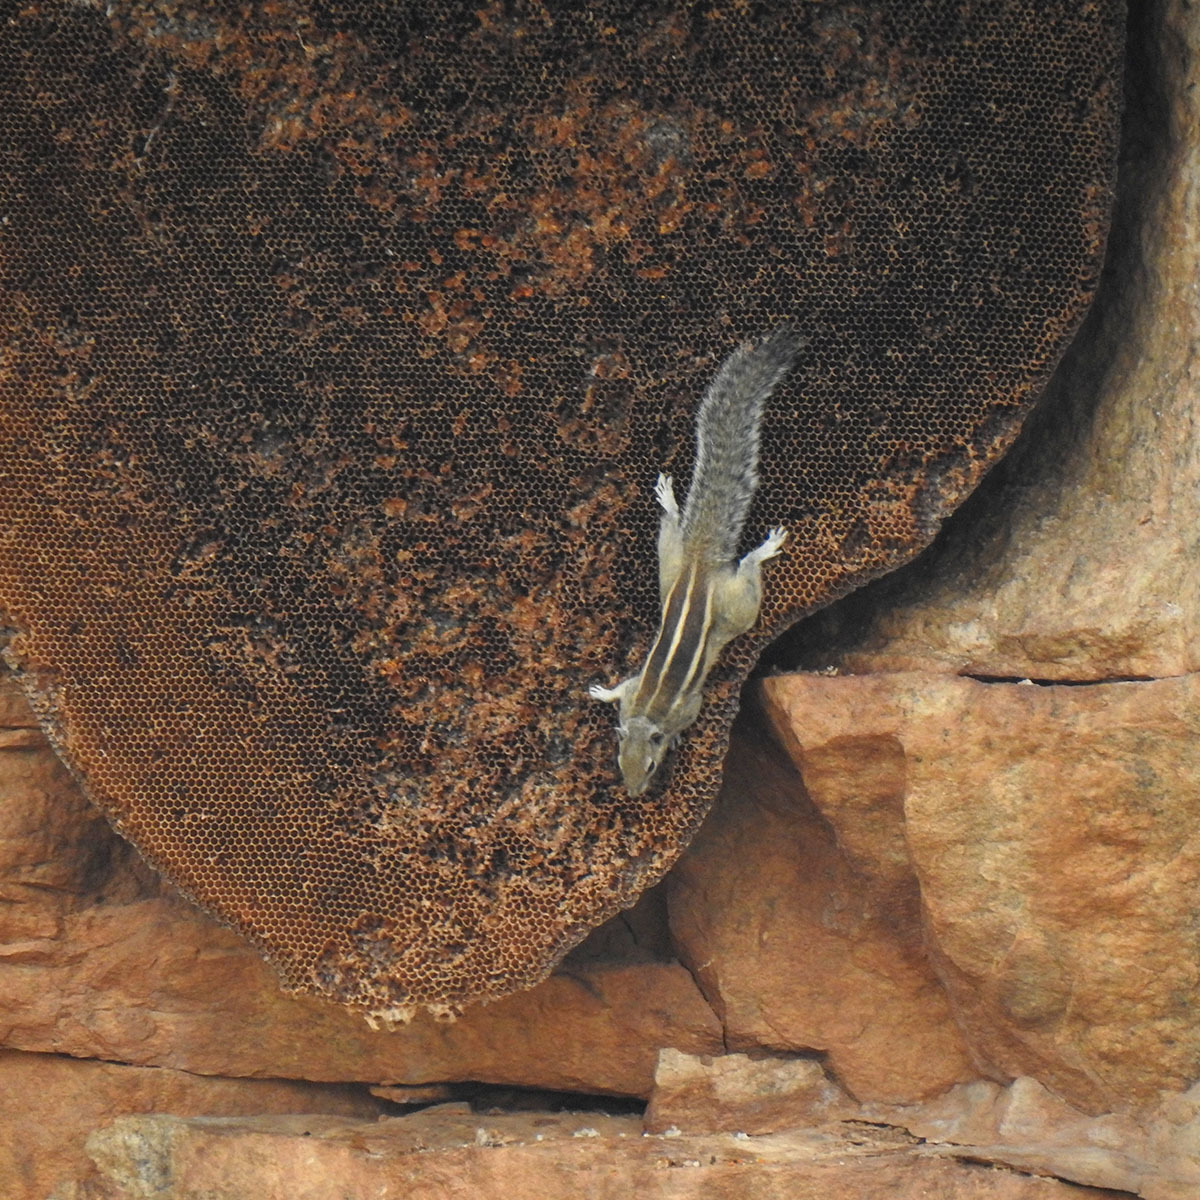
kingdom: Animalia
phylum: Chordata
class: Mammalia
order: Rodentia
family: Sciuridae
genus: Funambulus
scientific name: Funambulus palmarum
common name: Indian palm squirrel
